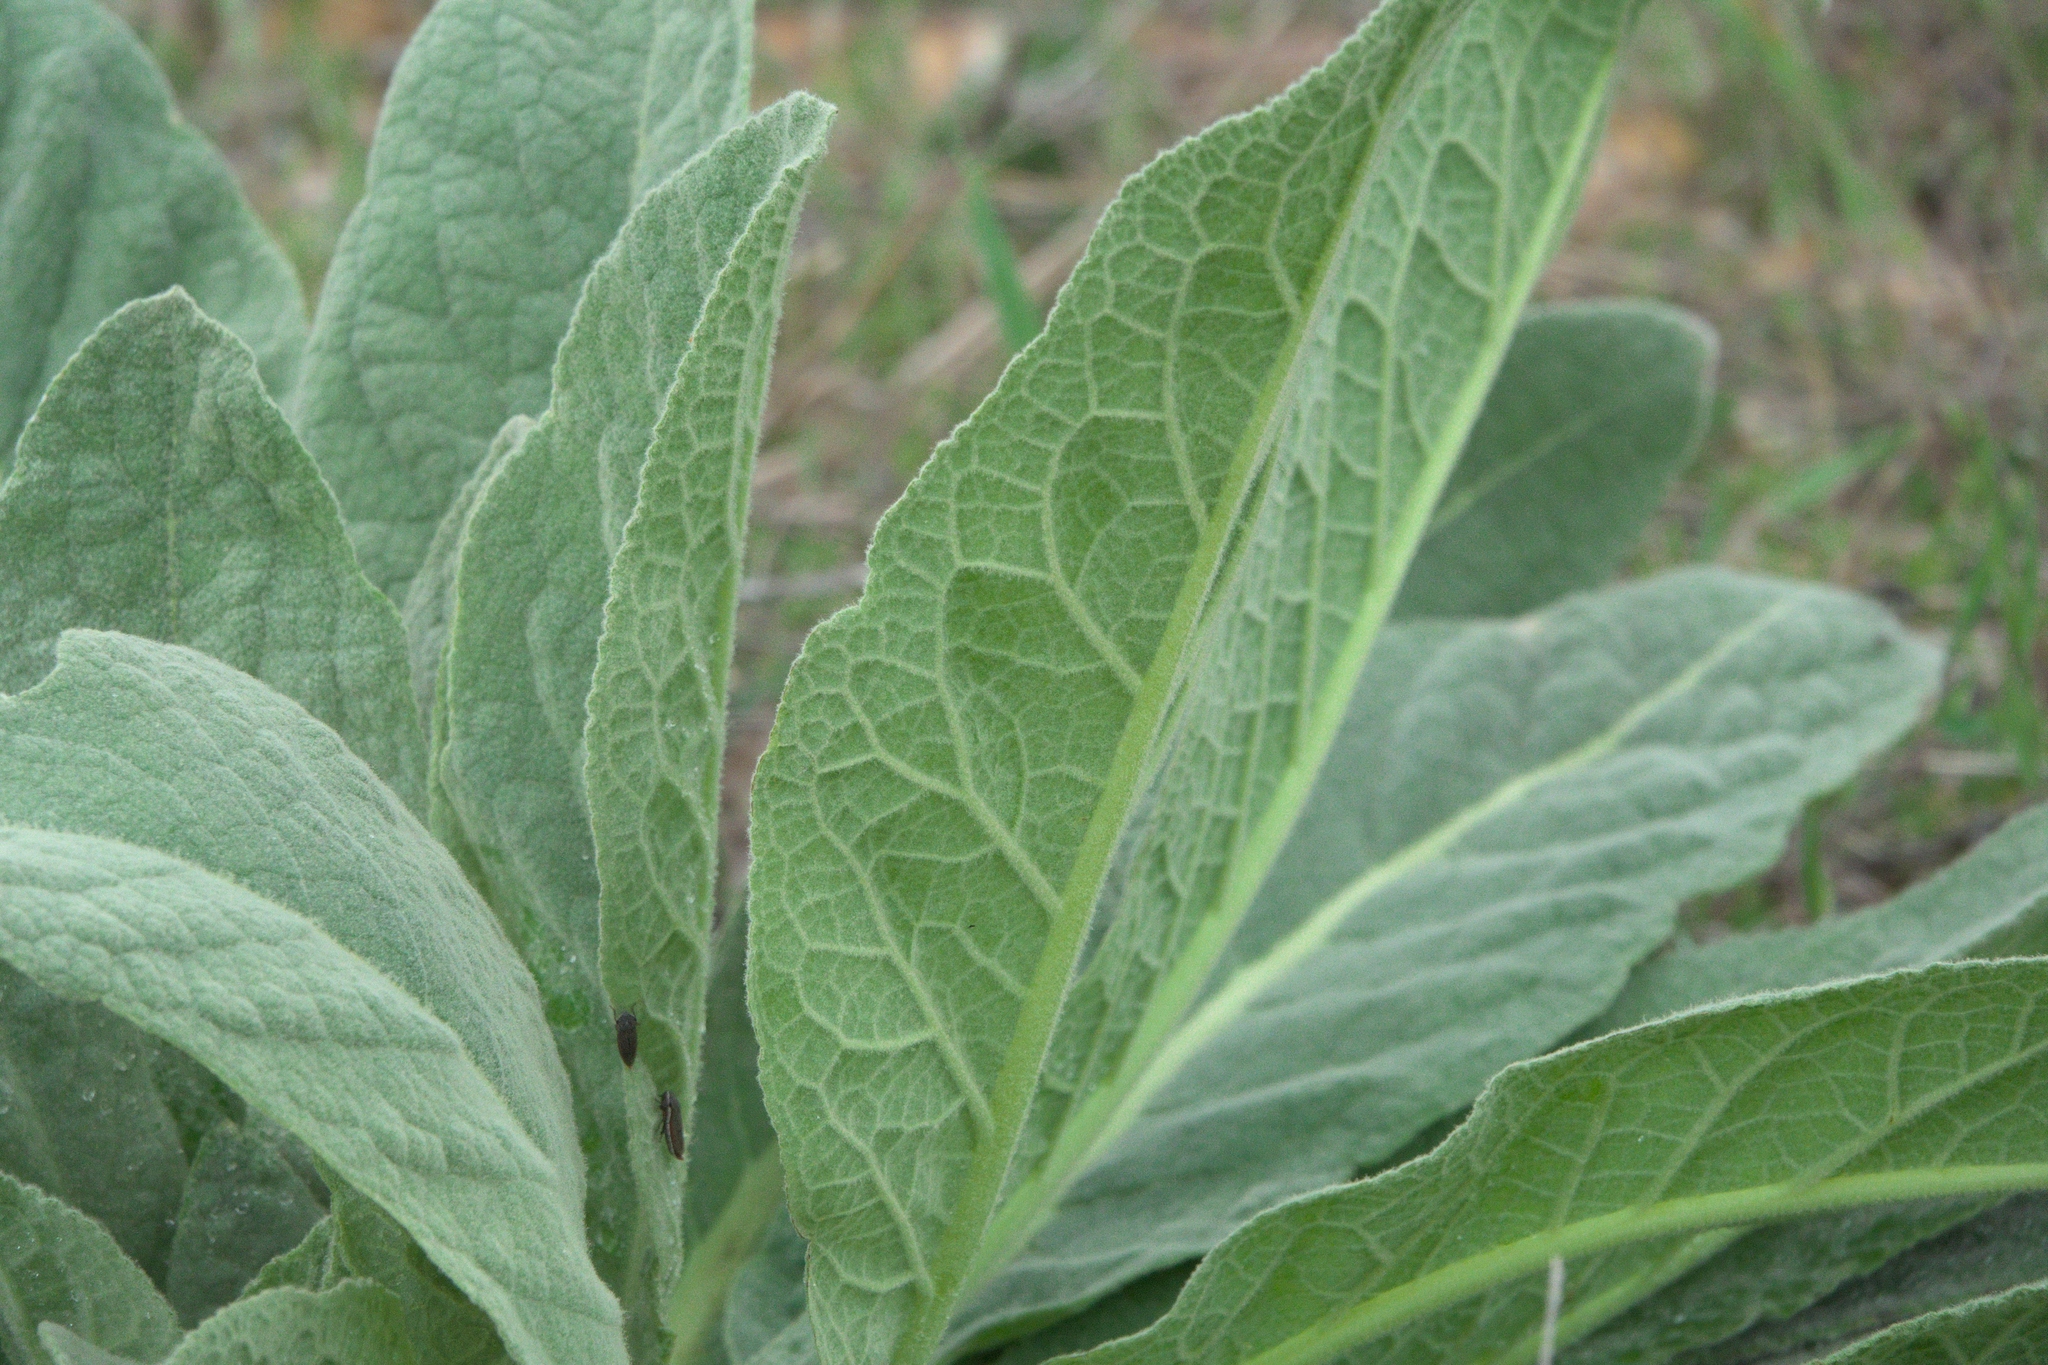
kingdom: Plantae
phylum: Tracheophyta
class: Magnoliopsida
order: Lamiales
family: Scrophulariaceae
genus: Verbascum
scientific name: Verbascum thapsus
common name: Common mullein
